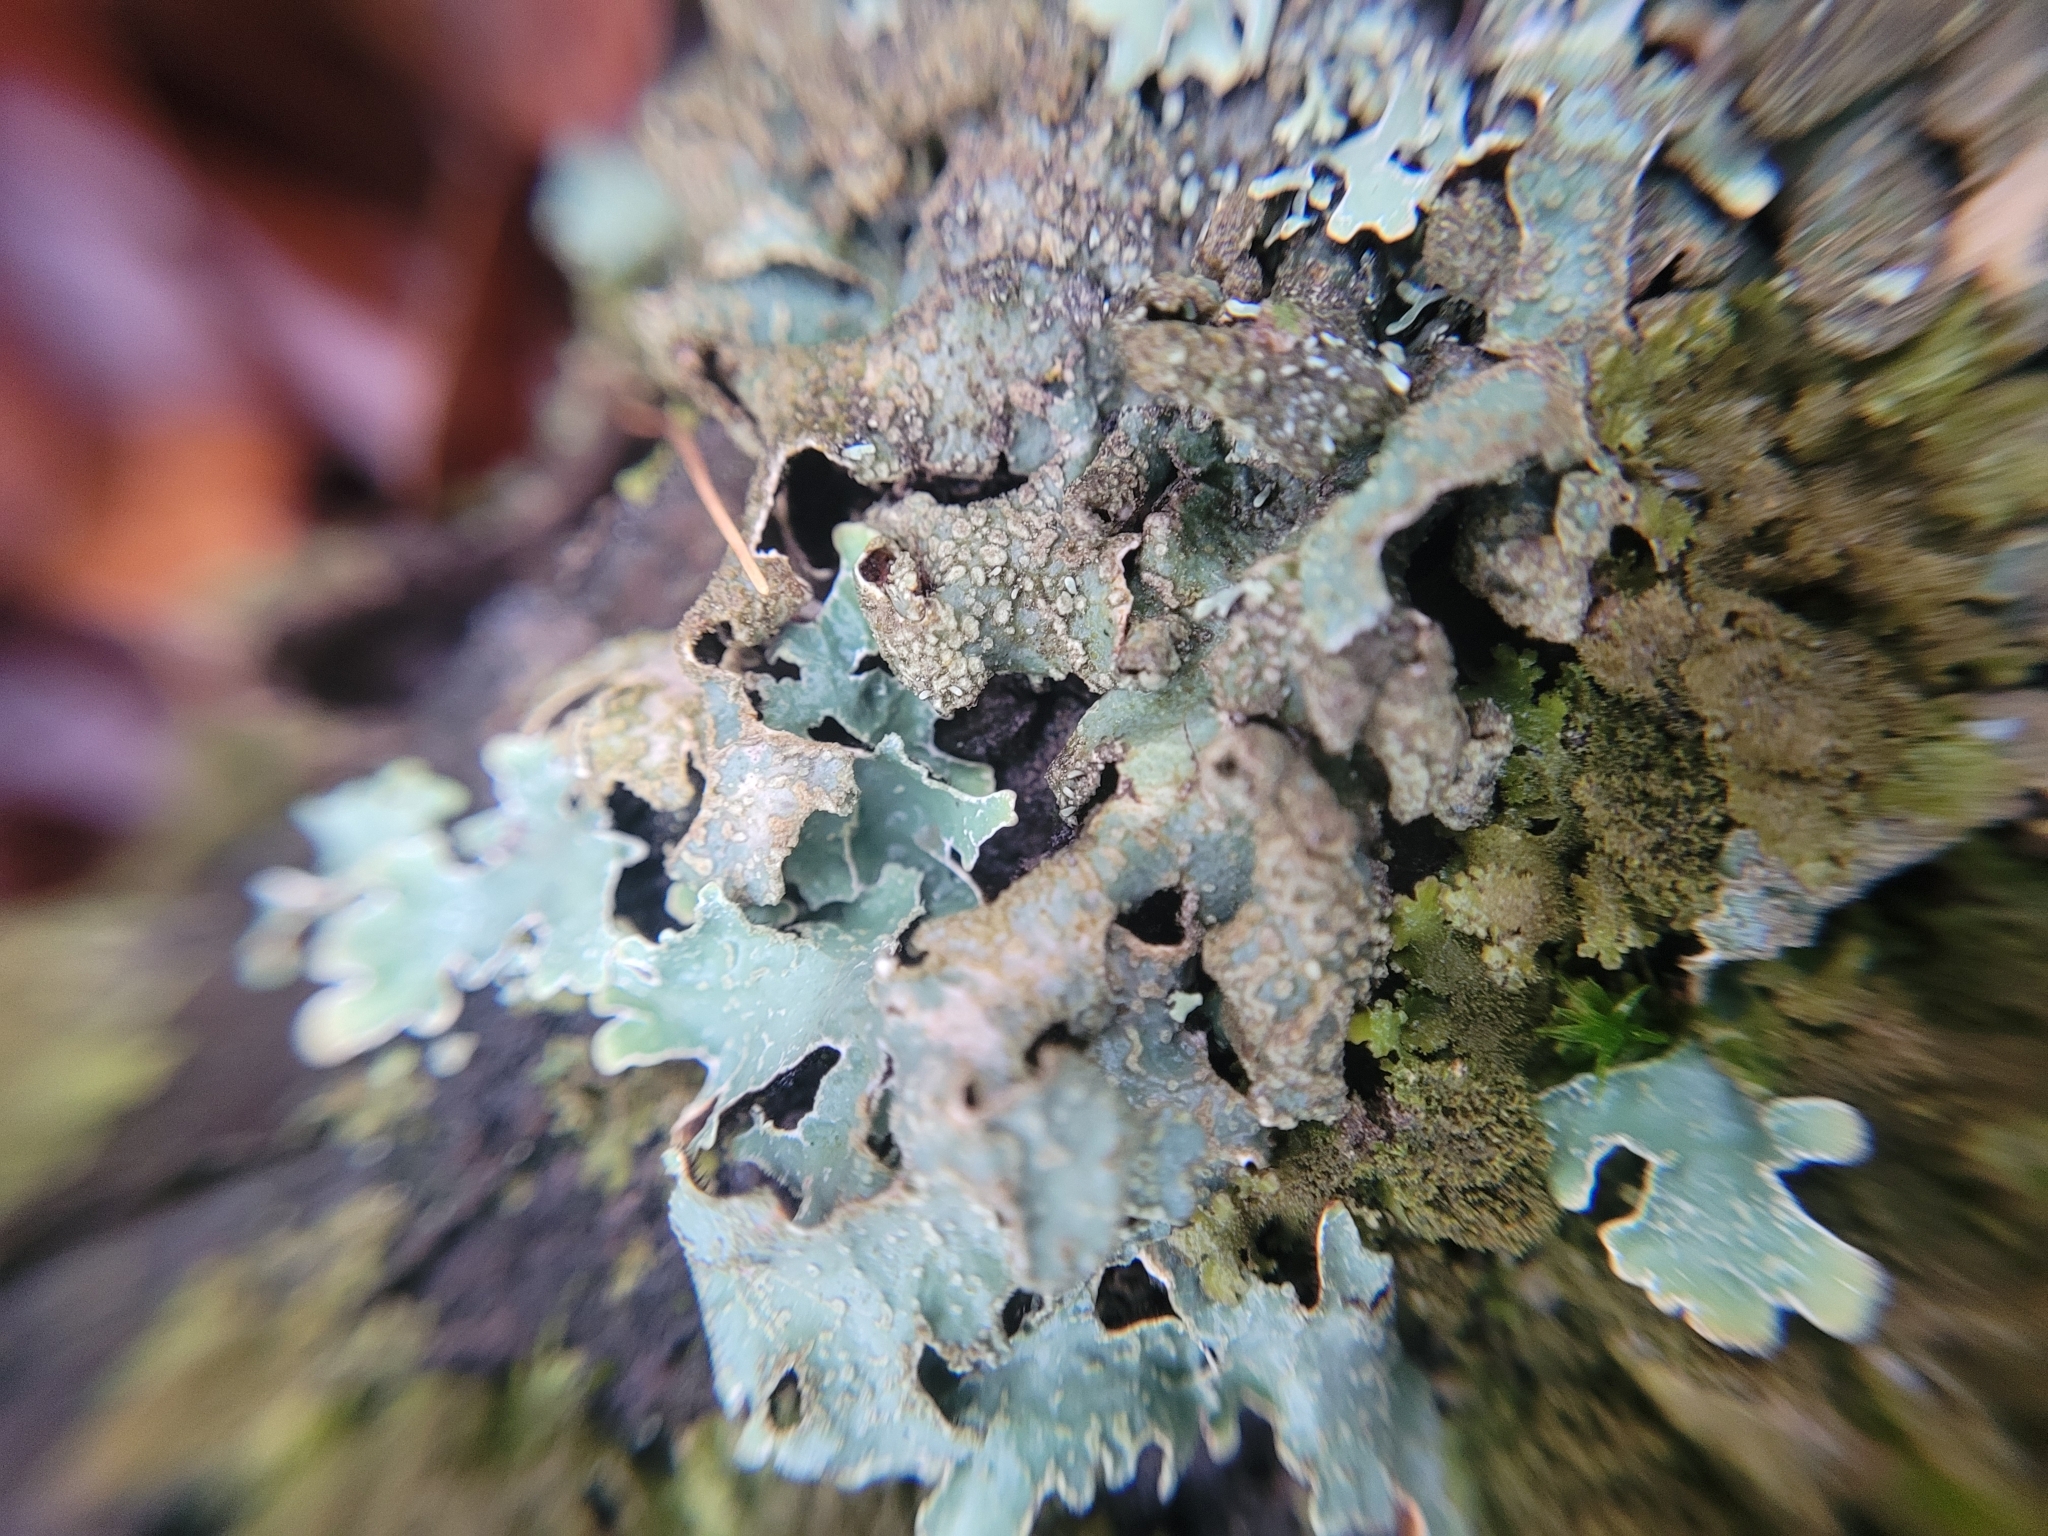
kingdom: Fungi
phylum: Ascomycota
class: Lecanoromycetes
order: Lecanorales
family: Parmeliaceae
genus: Parmelia
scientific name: Parmelia sulcata
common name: Netted shield lichen
